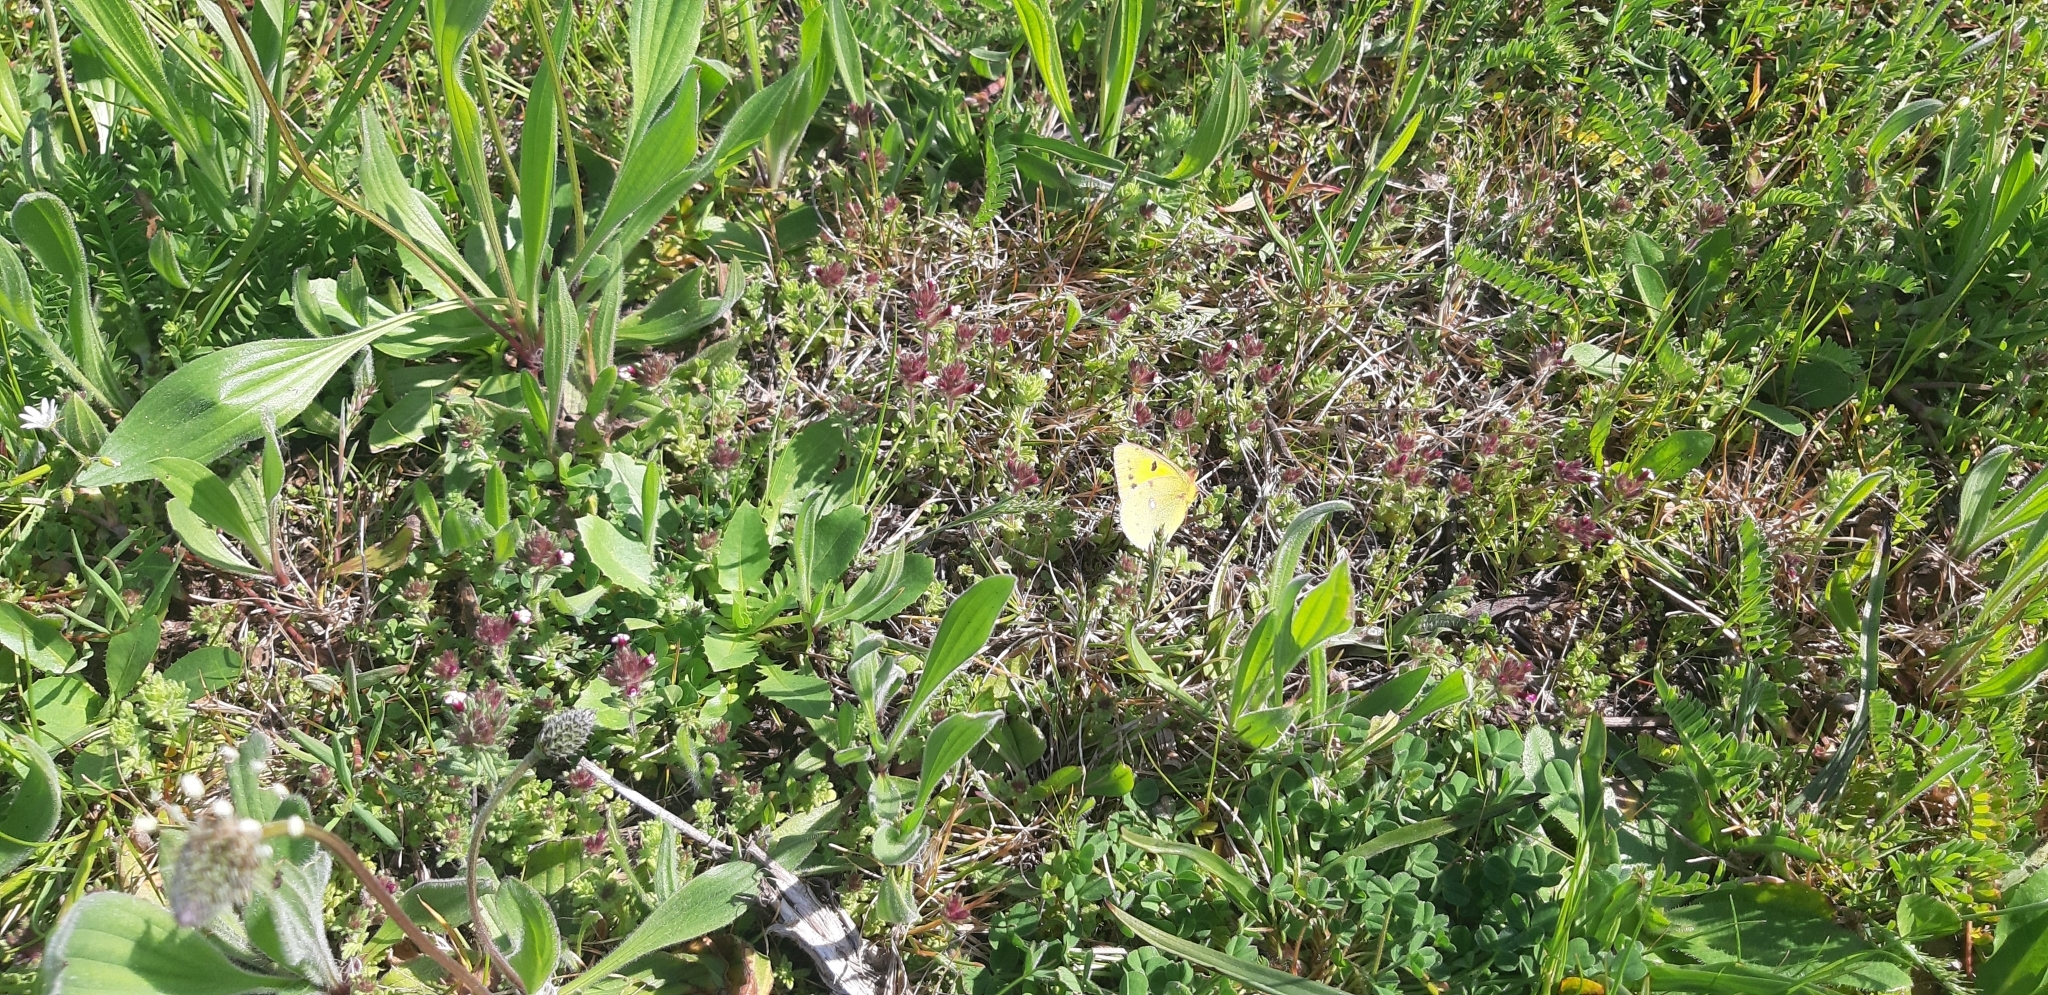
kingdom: Animalia
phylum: Arthropoda
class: Insecta
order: Lepidoptera
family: Pieridae
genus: Colias
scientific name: Colias croceus
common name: Clouded yellow
